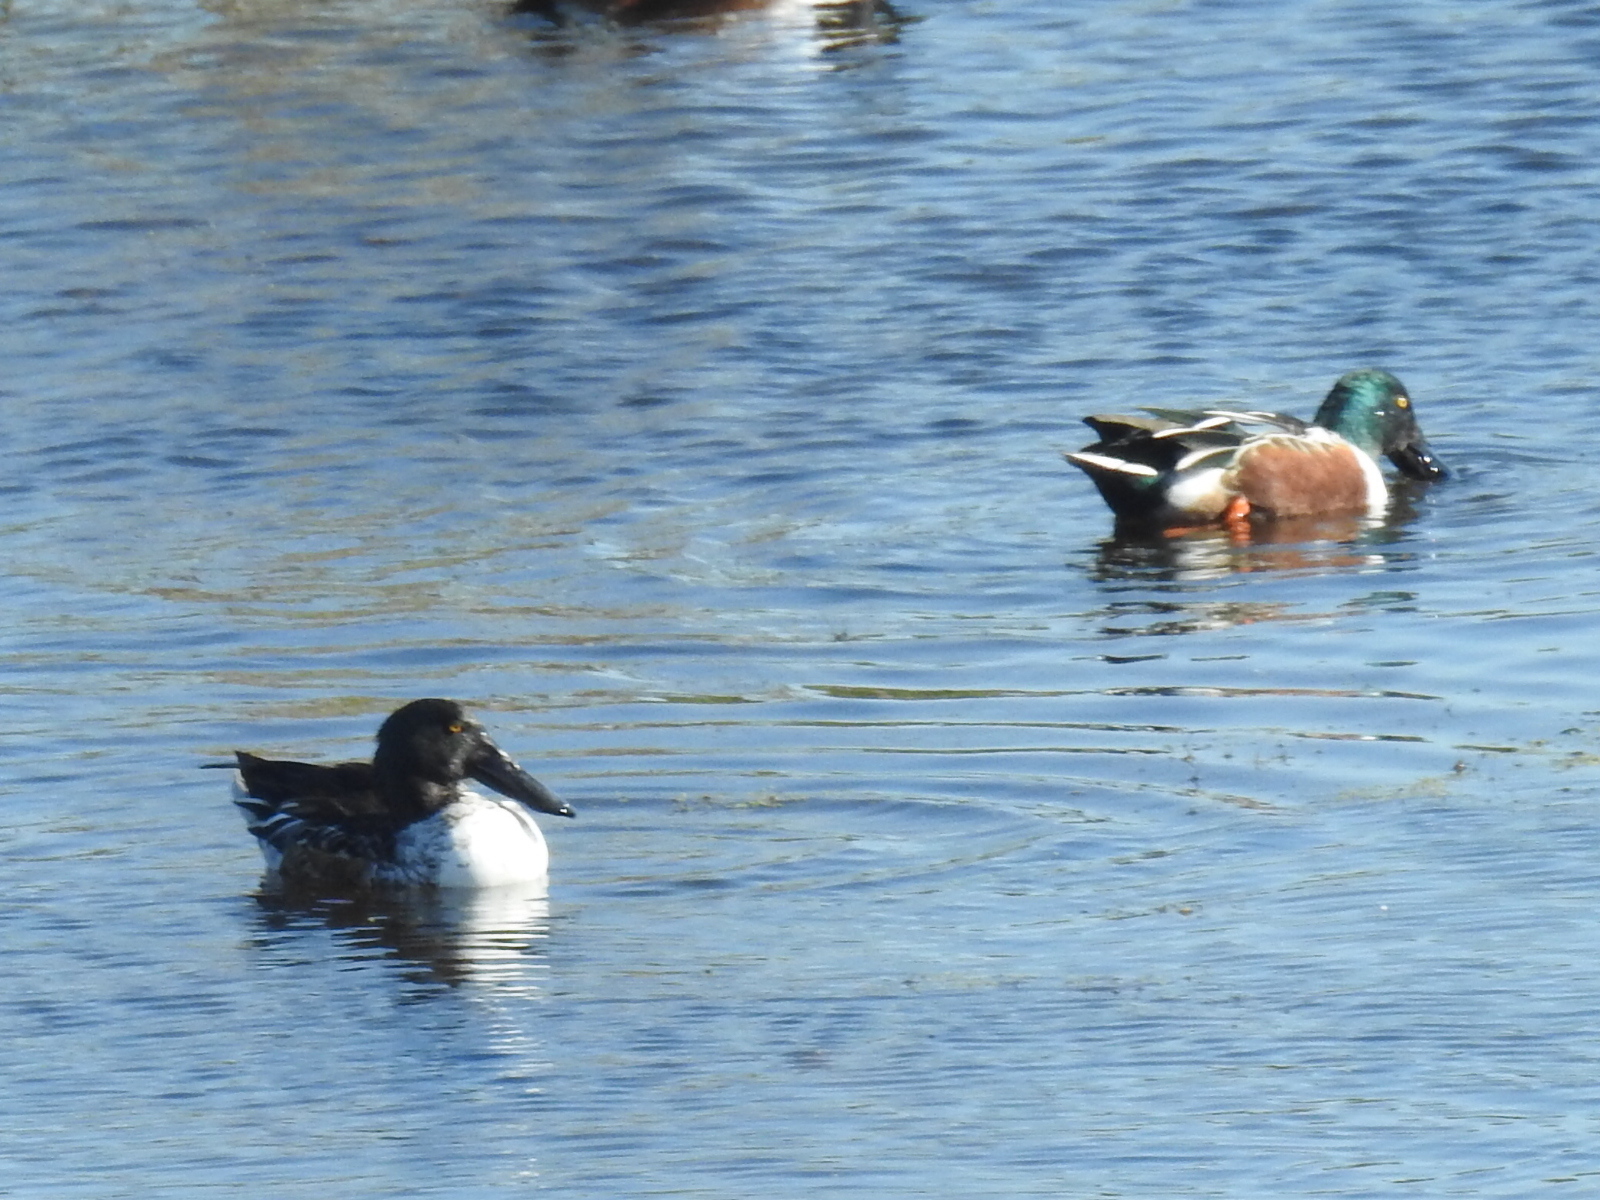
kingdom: Animalia
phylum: Chordata
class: Aves
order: Anseriformes
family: Anatidae
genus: Spatula
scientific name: Spatula clypeata
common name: Northern shoveler
